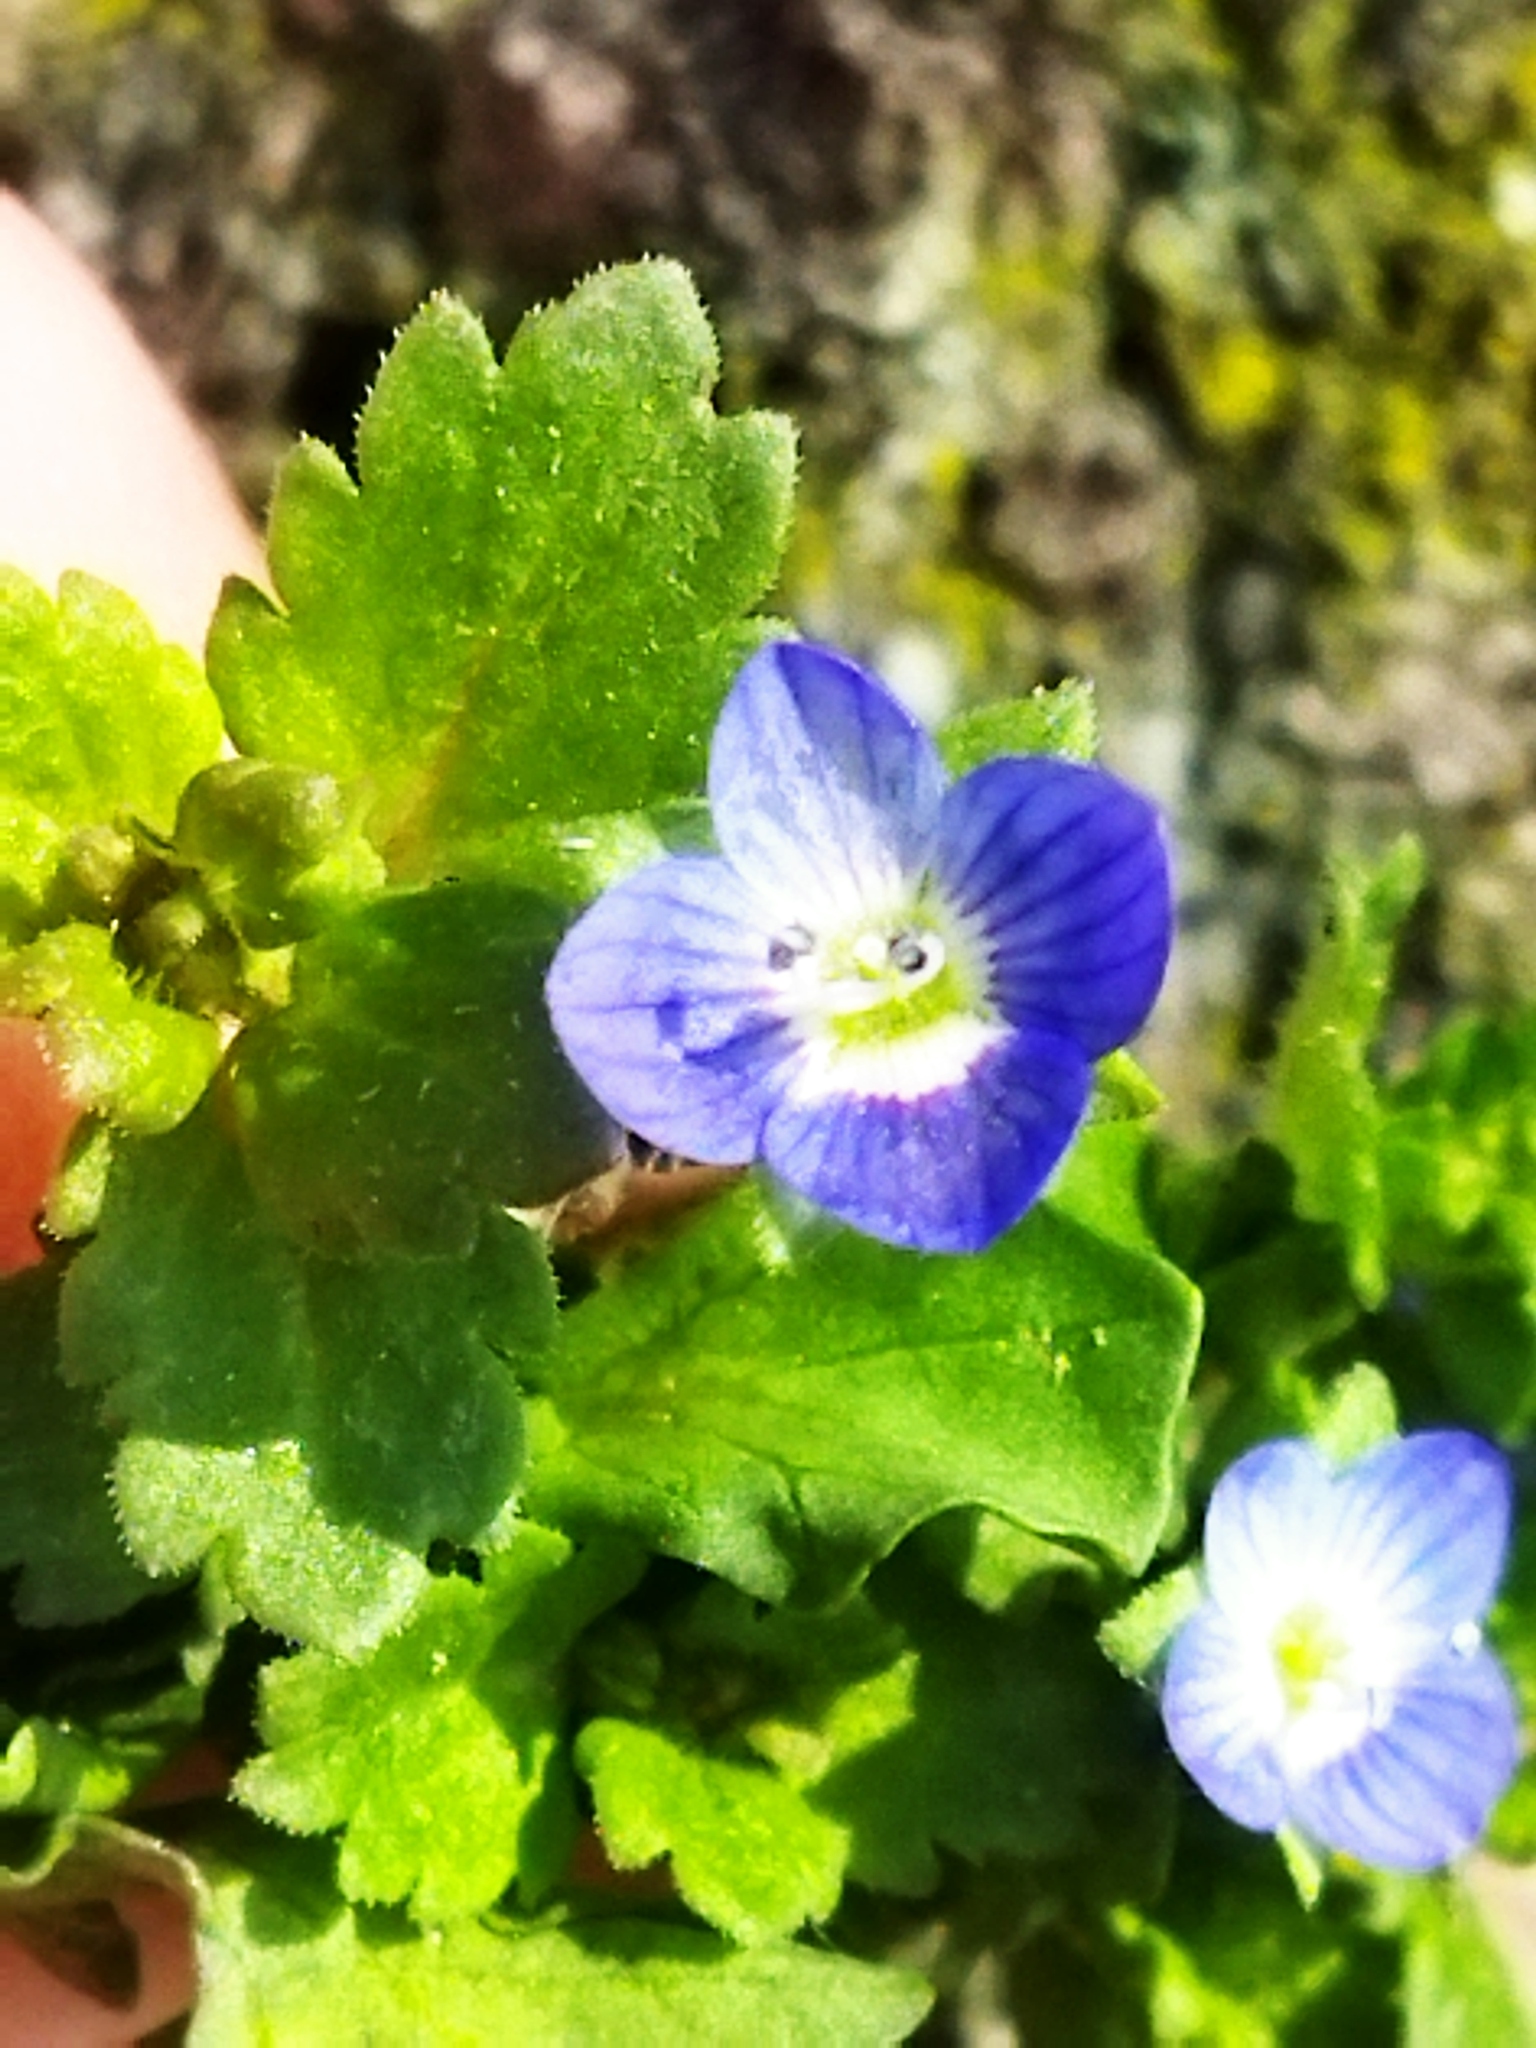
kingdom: Plantae
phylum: Tracheophyta
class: Magnoliopsida
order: Lamiales
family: Plantaginaceae
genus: Veronica
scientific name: Veronica polita
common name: Grey field-speedwell
